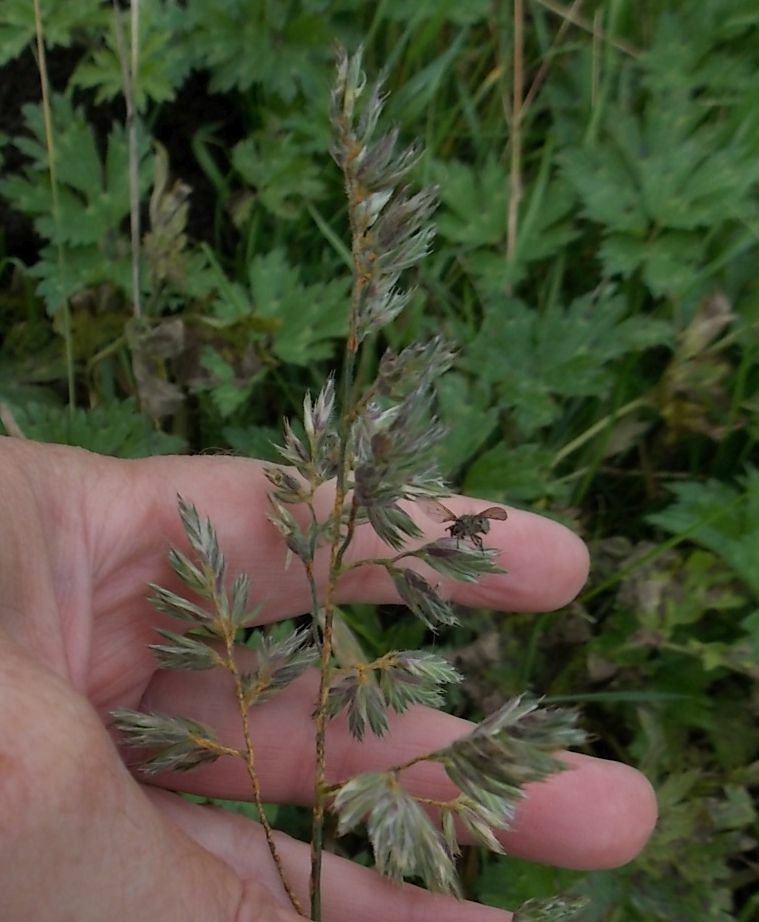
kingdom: Plantae
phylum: Tracheophyta
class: Liliopsida
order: Poales
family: Poaceae
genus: Dactylis
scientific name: Dactylis glomerata
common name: Orchardgrass
